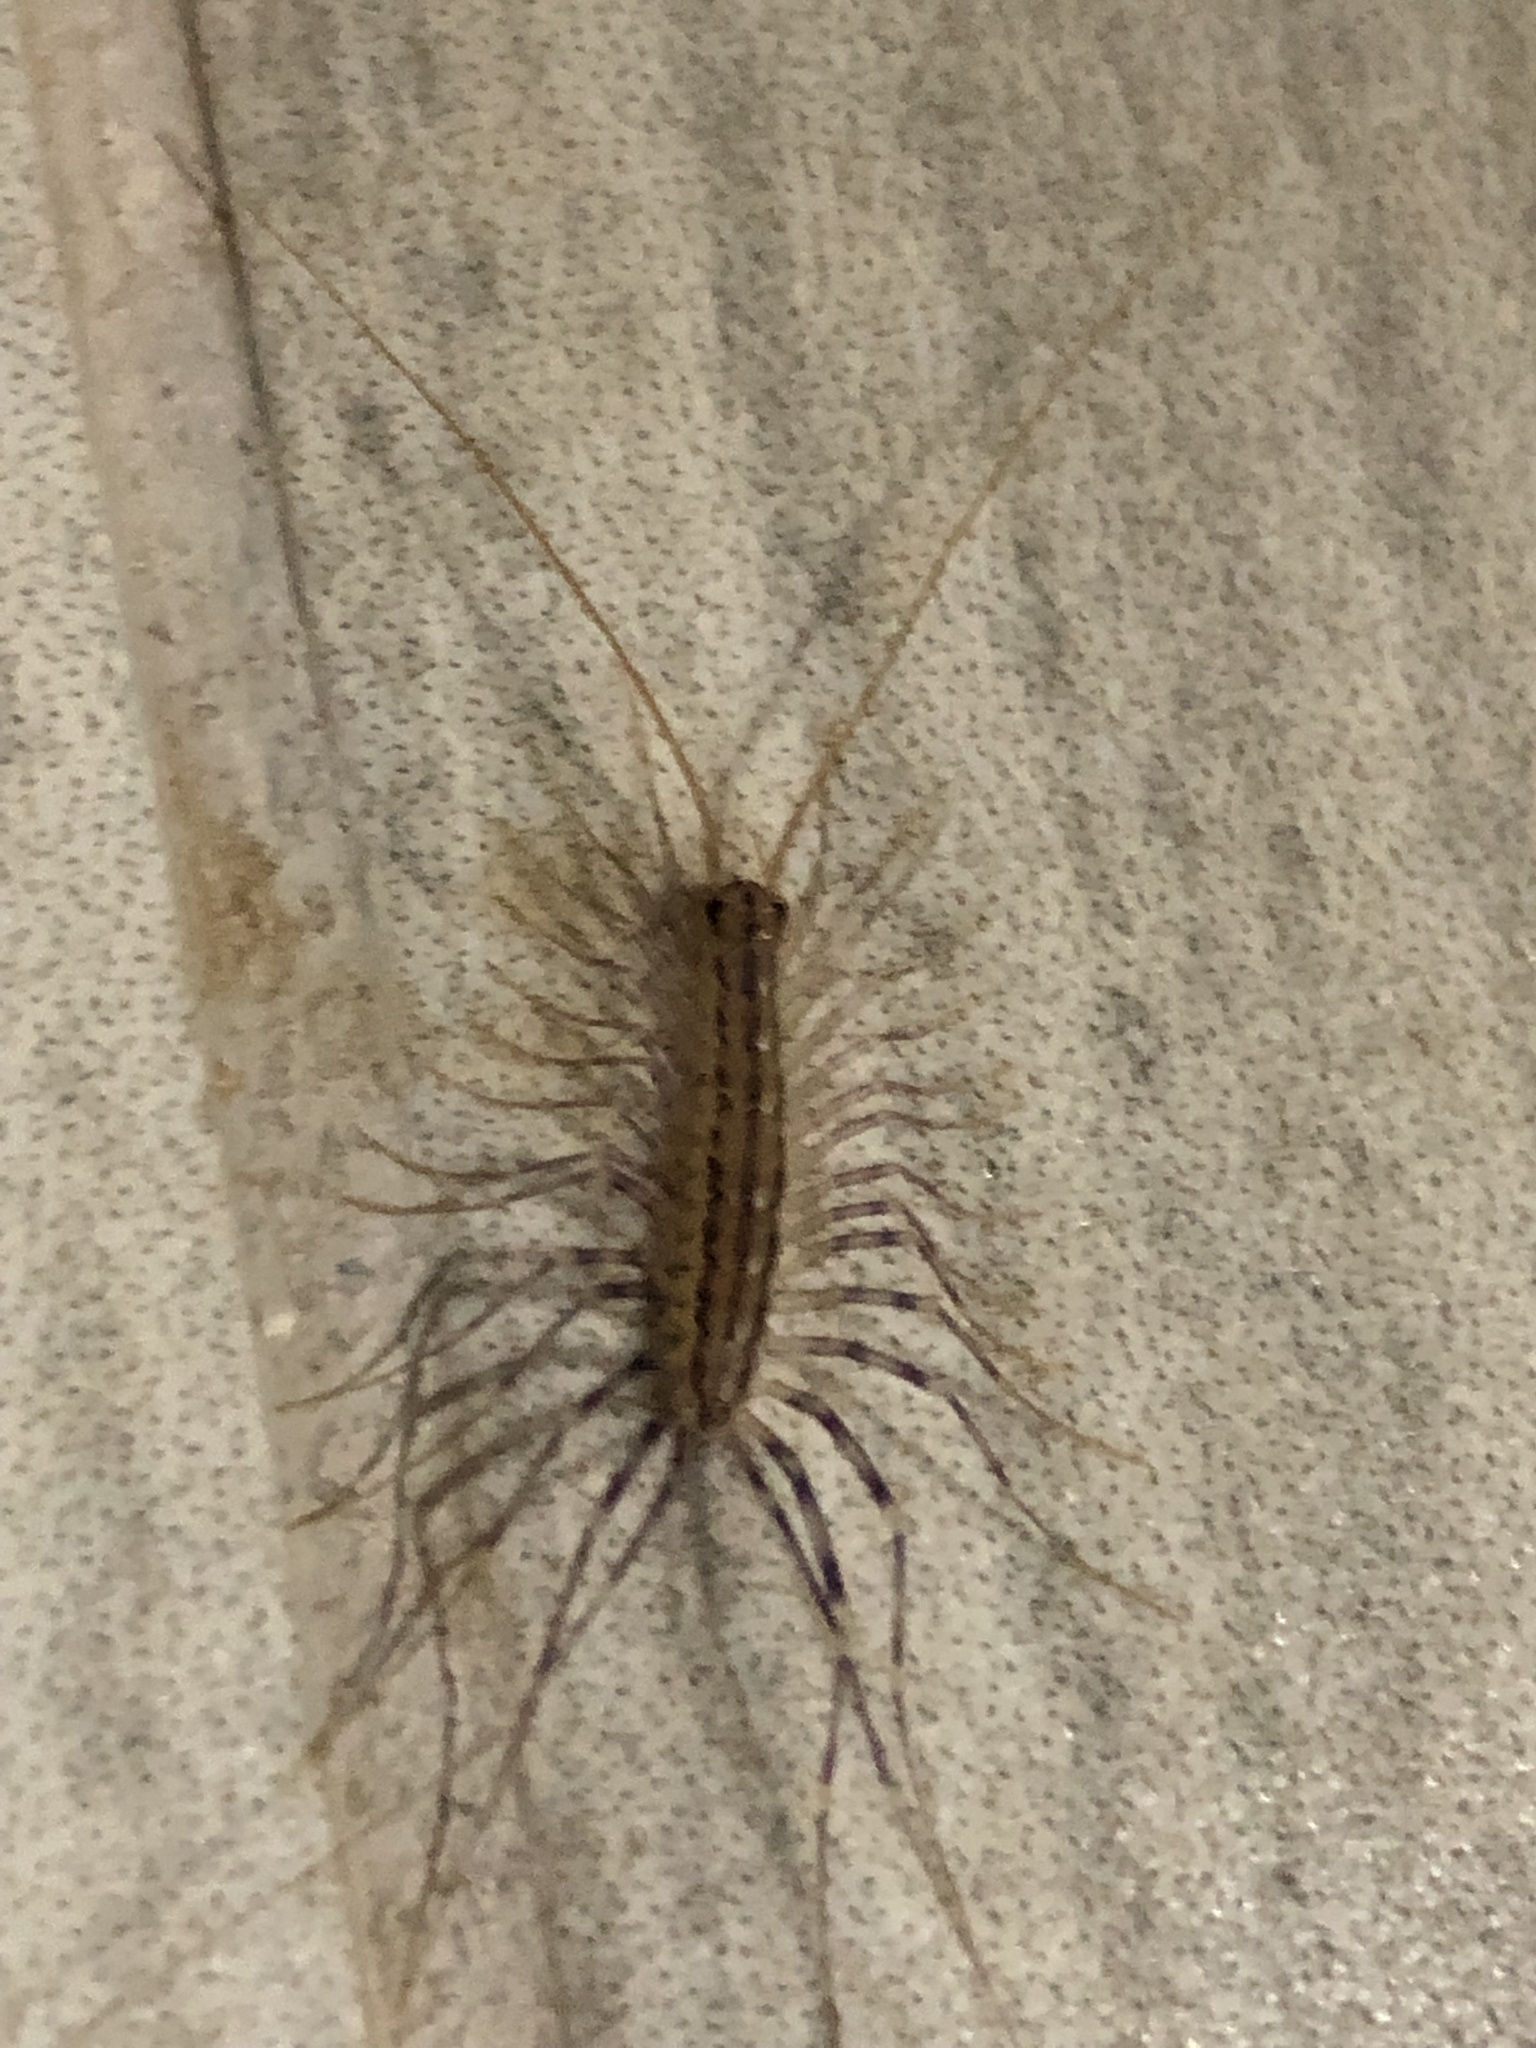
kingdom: Animalia
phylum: Arthropoda
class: Chilopoda
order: Scutigeromorpha
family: Scutigeridae
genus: Scutigera
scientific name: Scutigera coleoptrata
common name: House centipede
